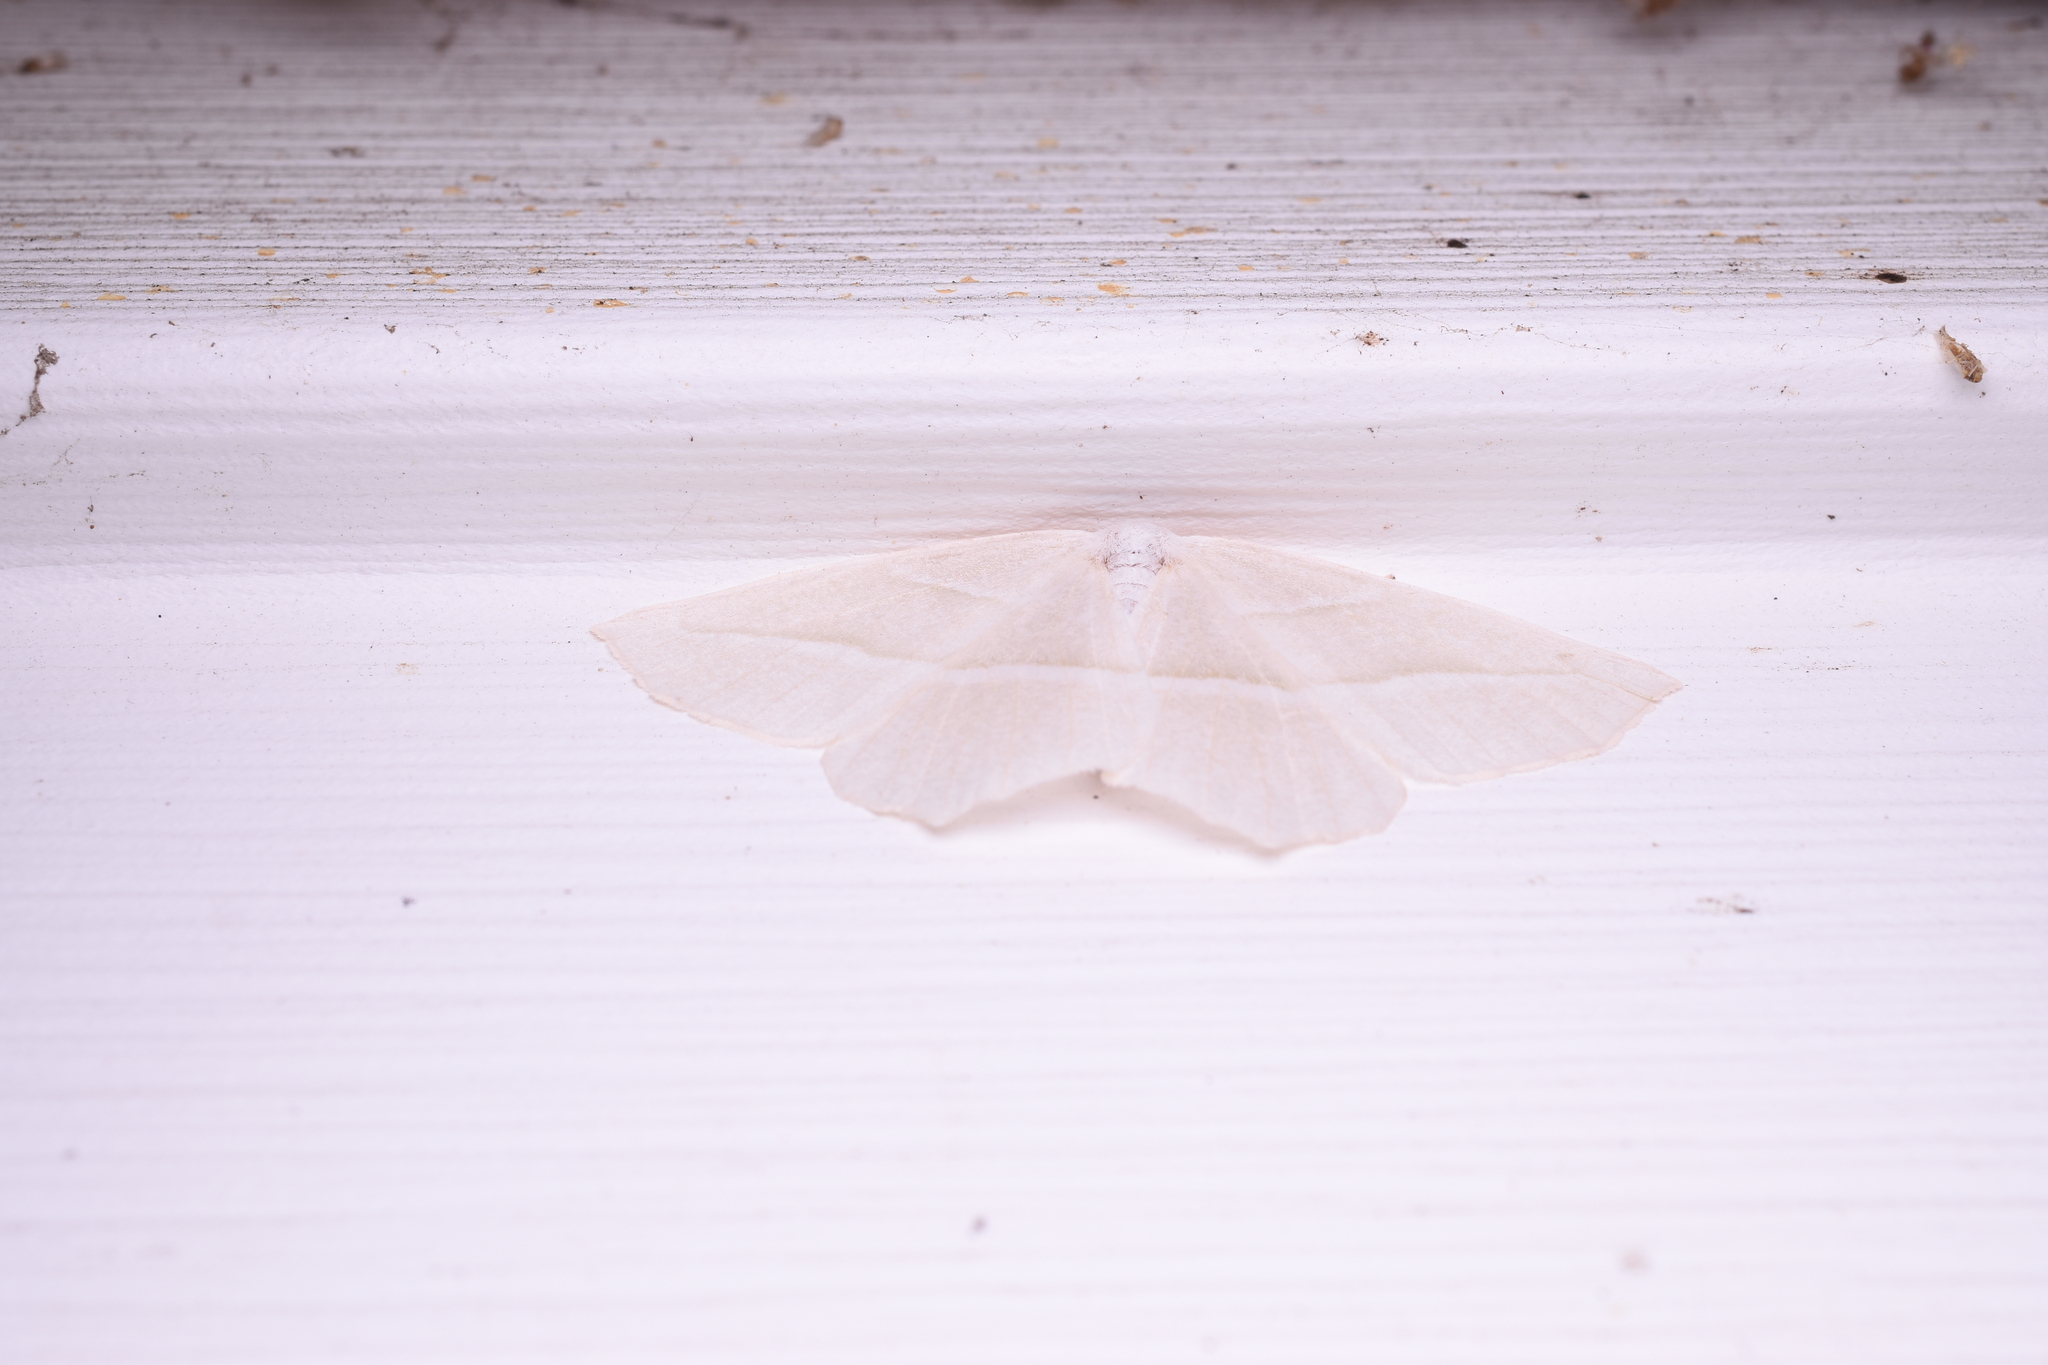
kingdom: Animalia
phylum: Arthropoda
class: Insecta
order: Lepidoptera
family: Geometridae
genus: Campaea
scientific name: Campaea perlata
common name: Fringed looper
